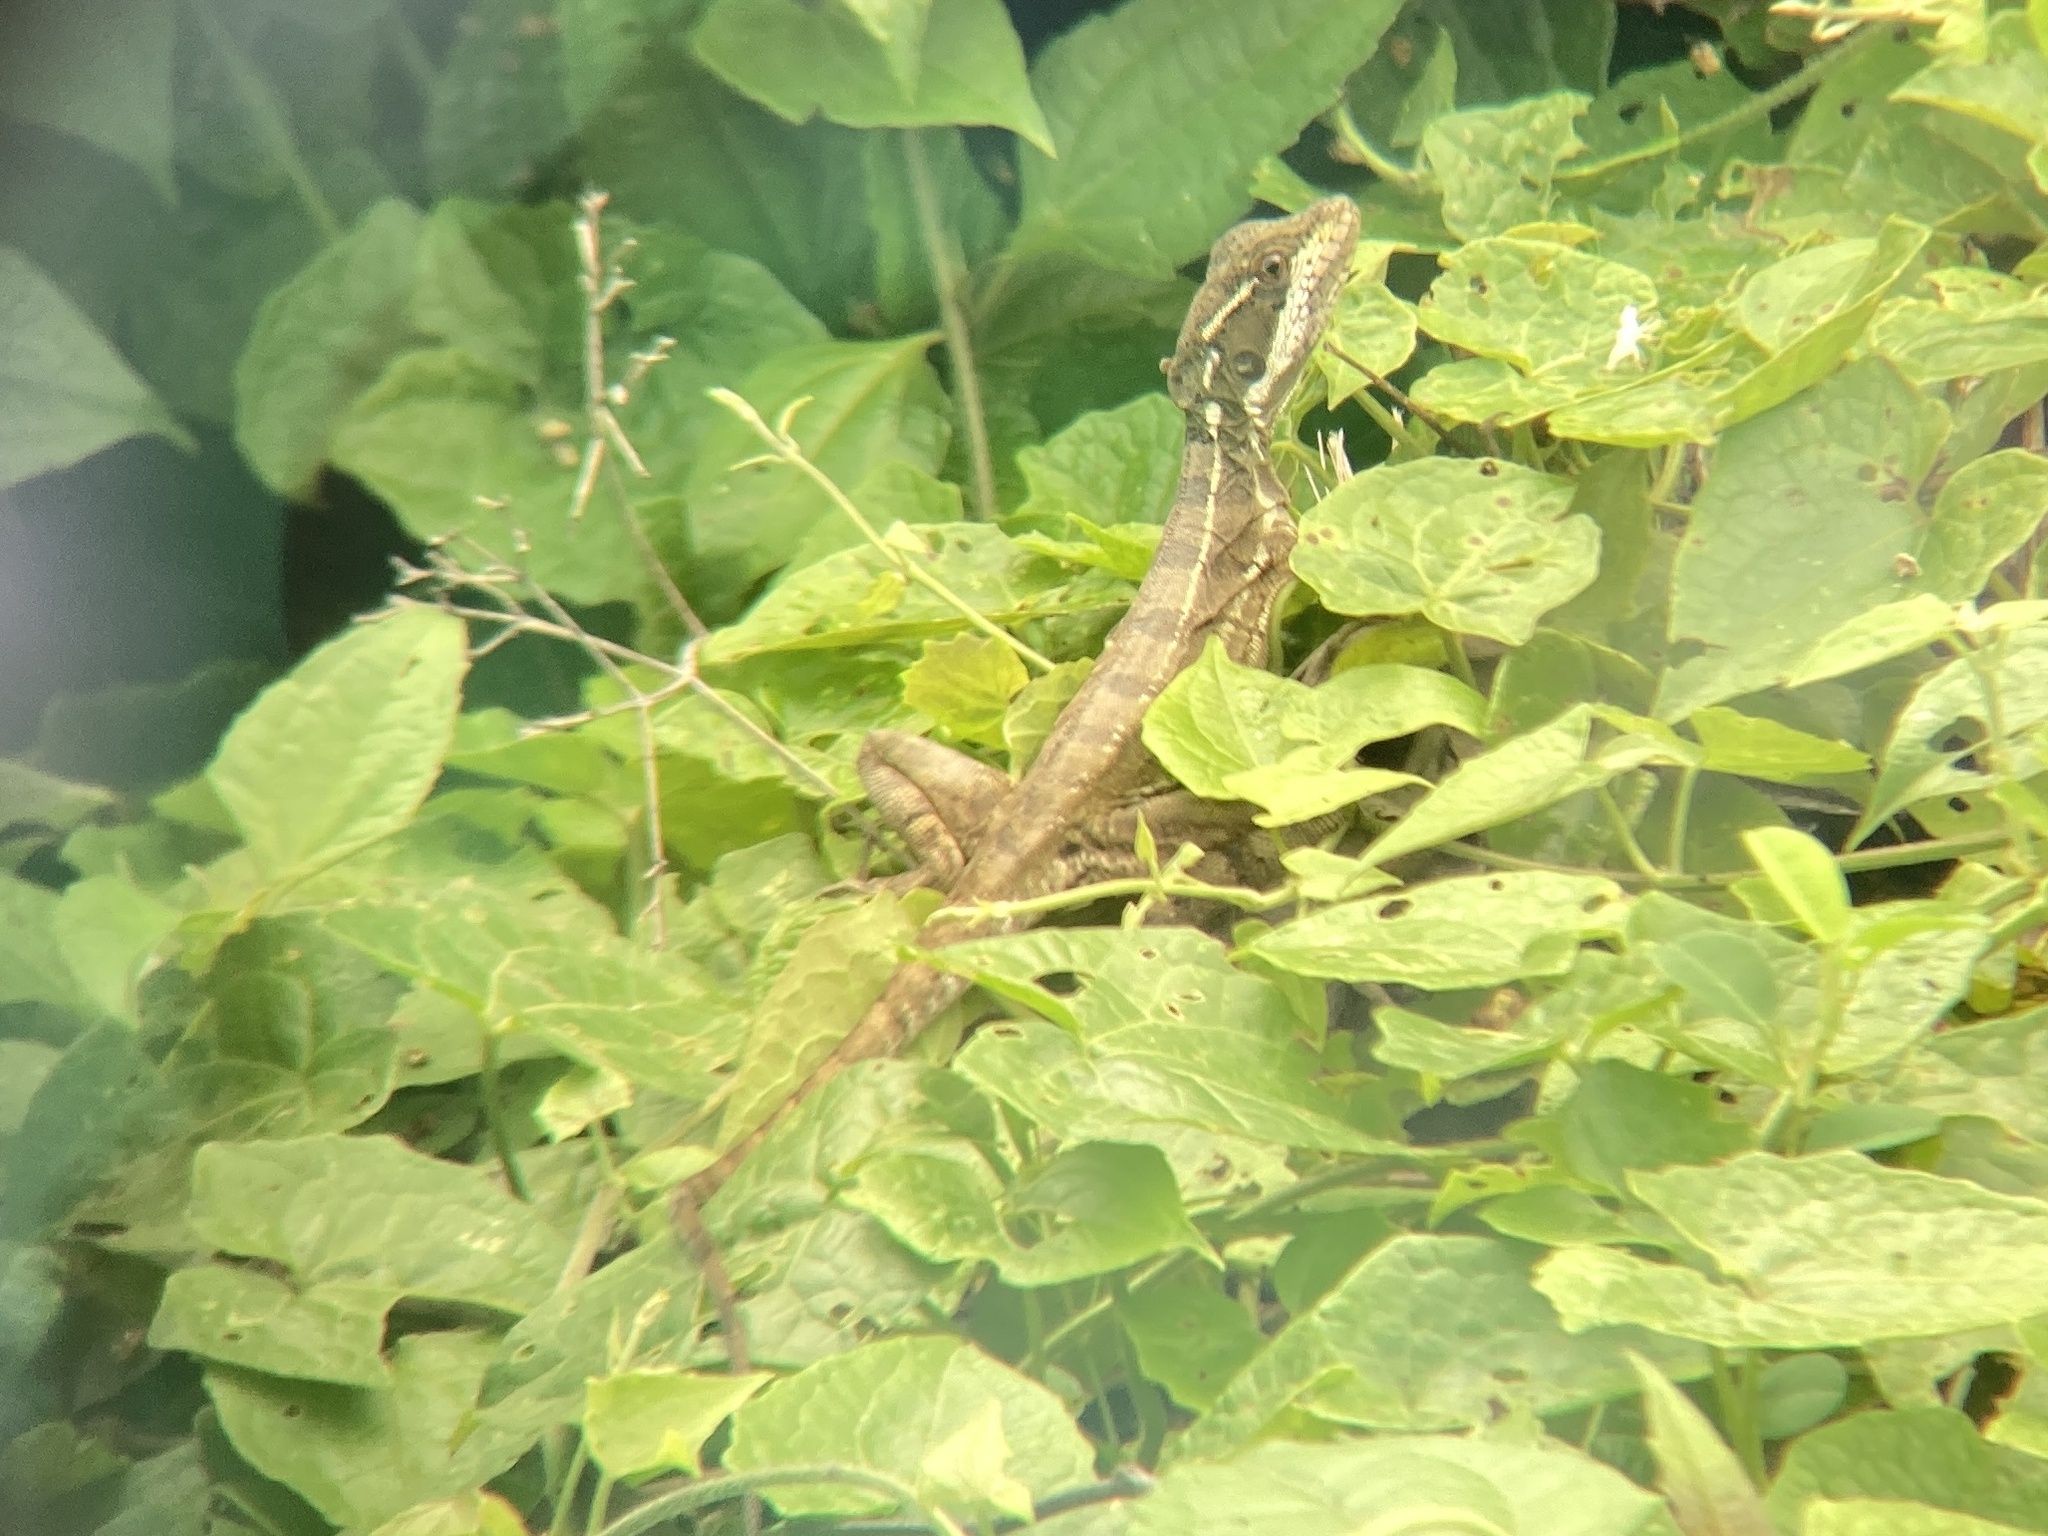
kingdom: Animalia
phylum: Chordata
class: Squamata
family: Corytophanidae
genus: Basiliscus
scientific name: Basiliscus basiliscus
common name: Common basilisk
